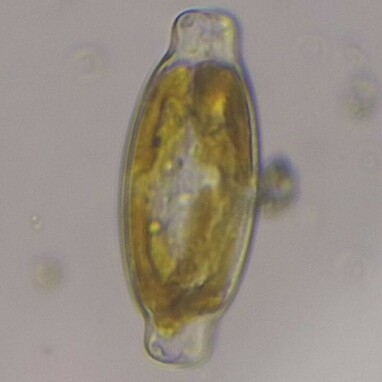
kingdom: Chromista
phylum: Ochrophyta
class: Bacillariophyceae
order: Naviculales
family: Naviculaceae
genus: Caloneis
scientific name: Caloneis amphisbaena
